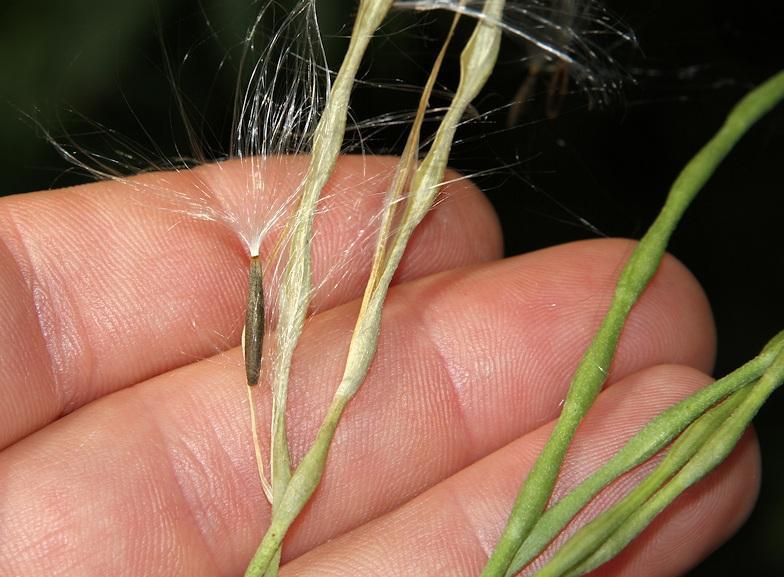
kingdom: Plantae
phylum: Tracheophyta
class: Magnoliopsida
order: Gentianales
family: Apocynaceae
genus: Riocreuxia
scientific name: Riocreuxia torulosa
